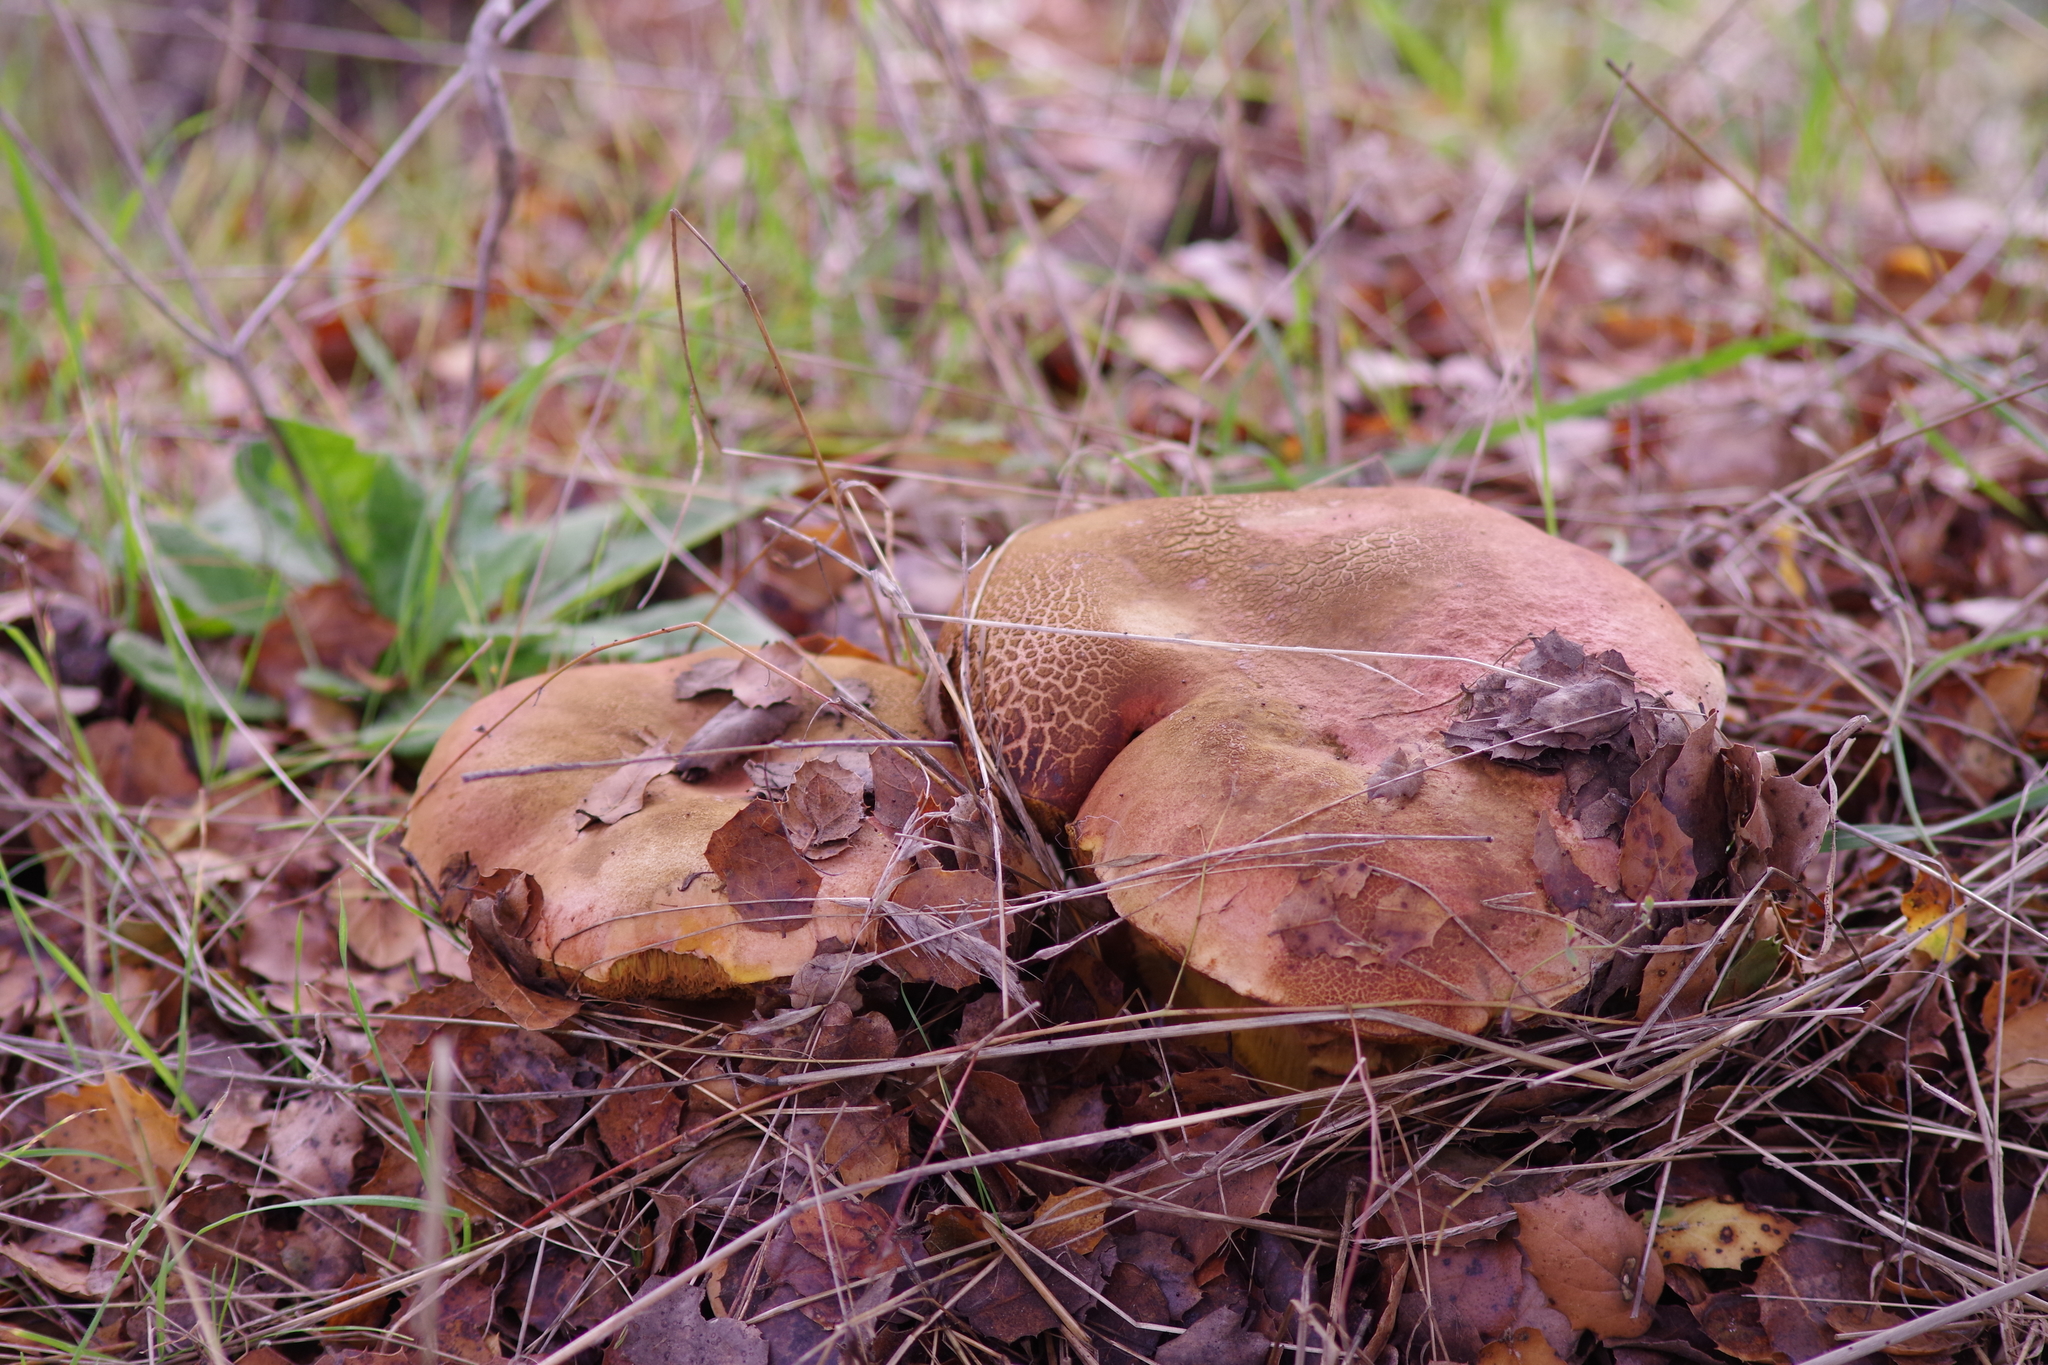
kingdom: Fungi
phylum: Basidiomycota
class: Agaricomycetes
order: Boletales
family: Boletaceae
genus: Suillellus
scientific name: Suillellus amygdalinus
